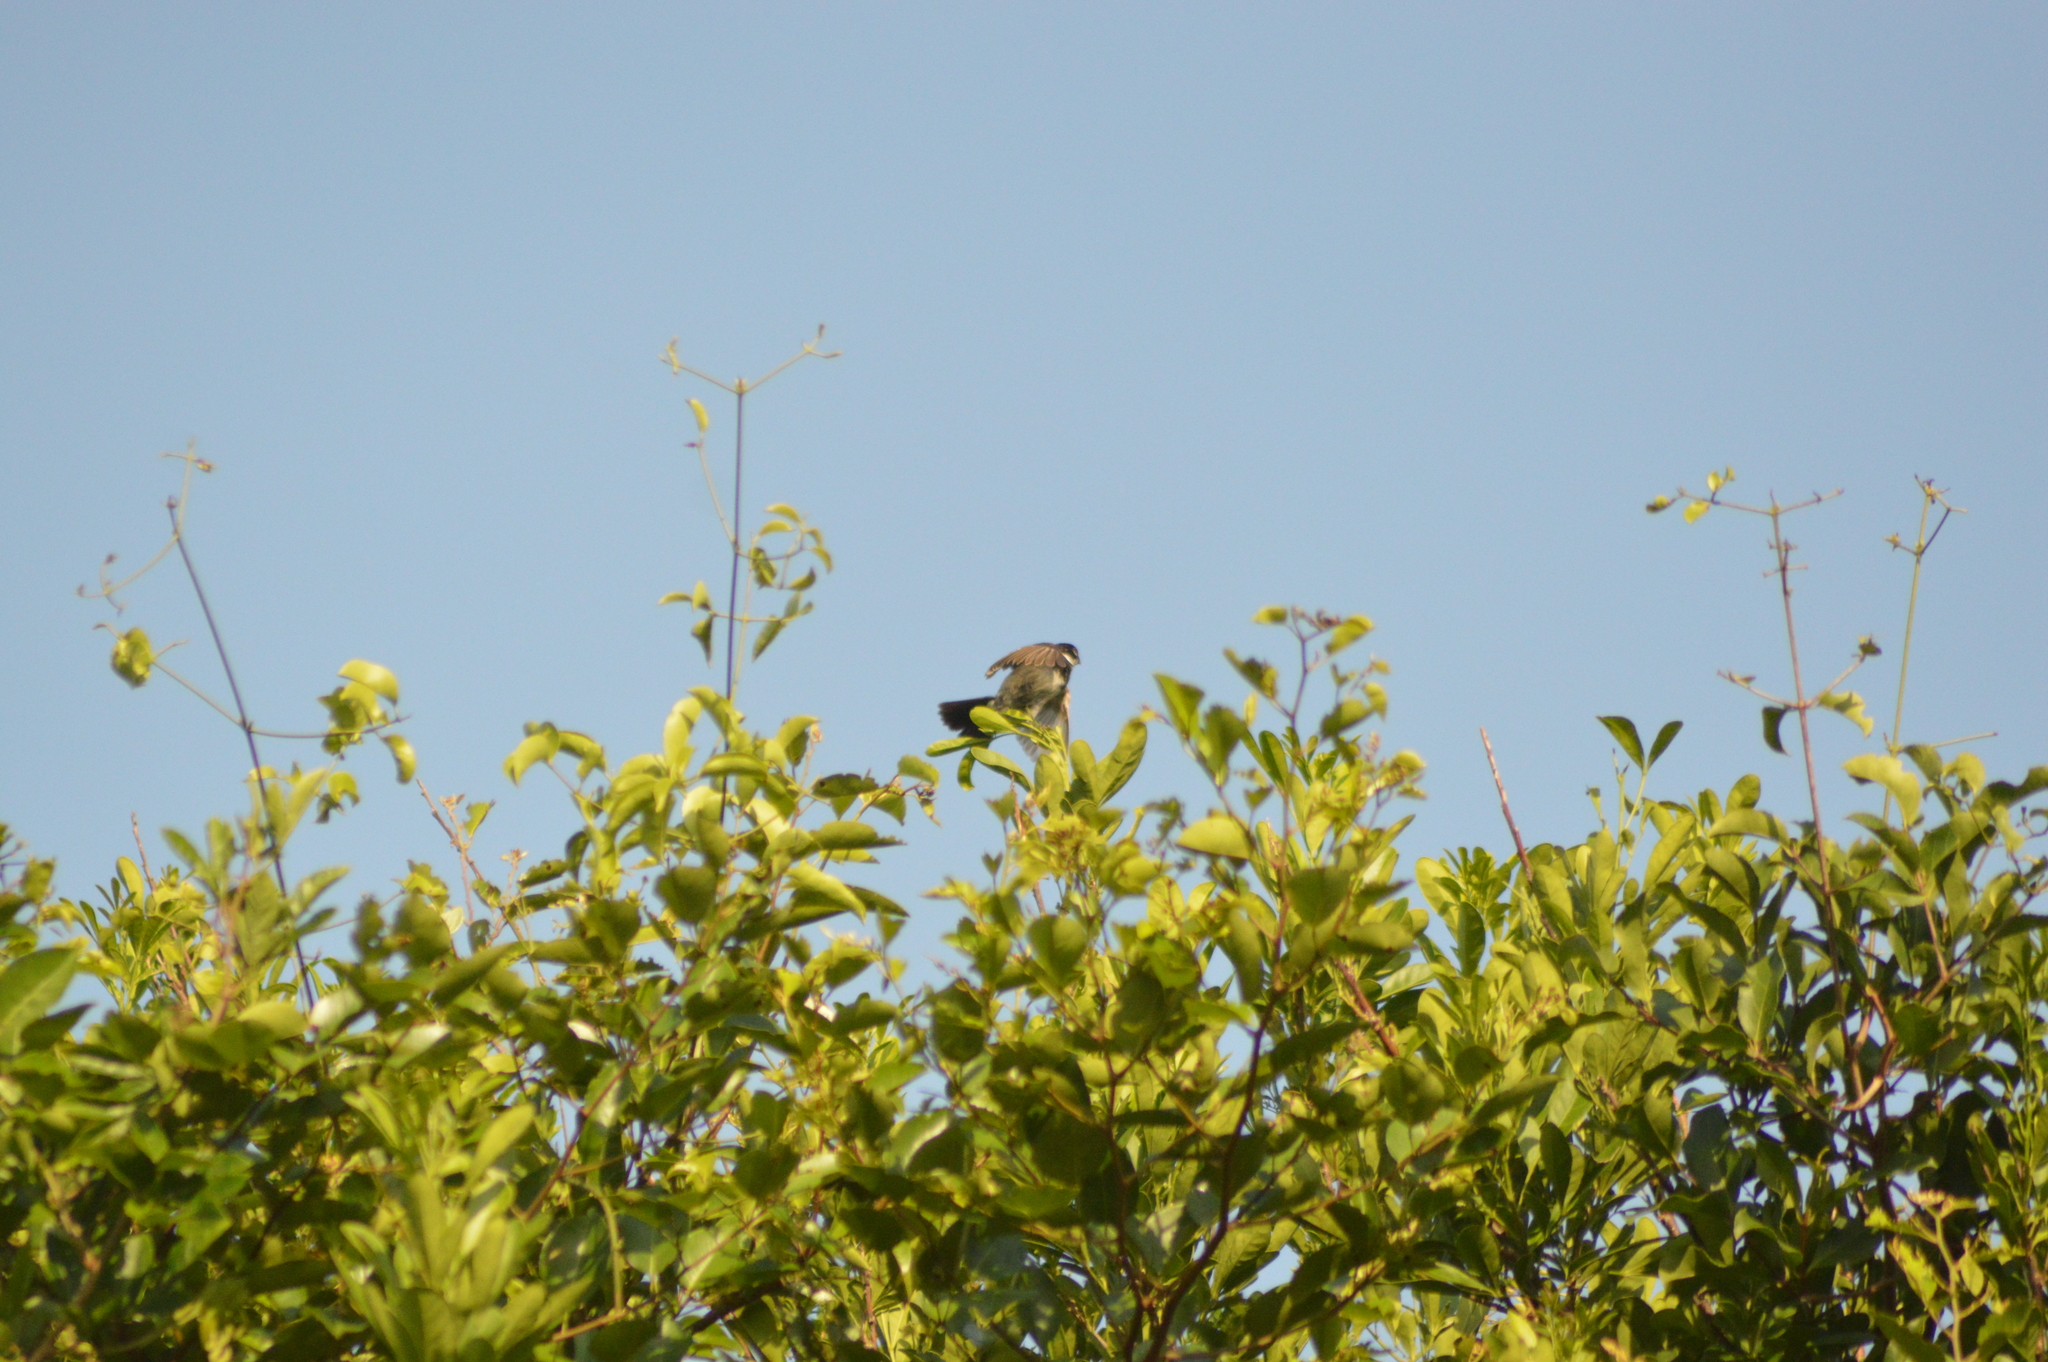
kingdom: Animalia
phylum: Chordata
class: Aves
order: Passeriformes
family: Thraupidae
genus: Sporophila
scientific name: Sporophila morelleti
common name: Morelet's seedeater
